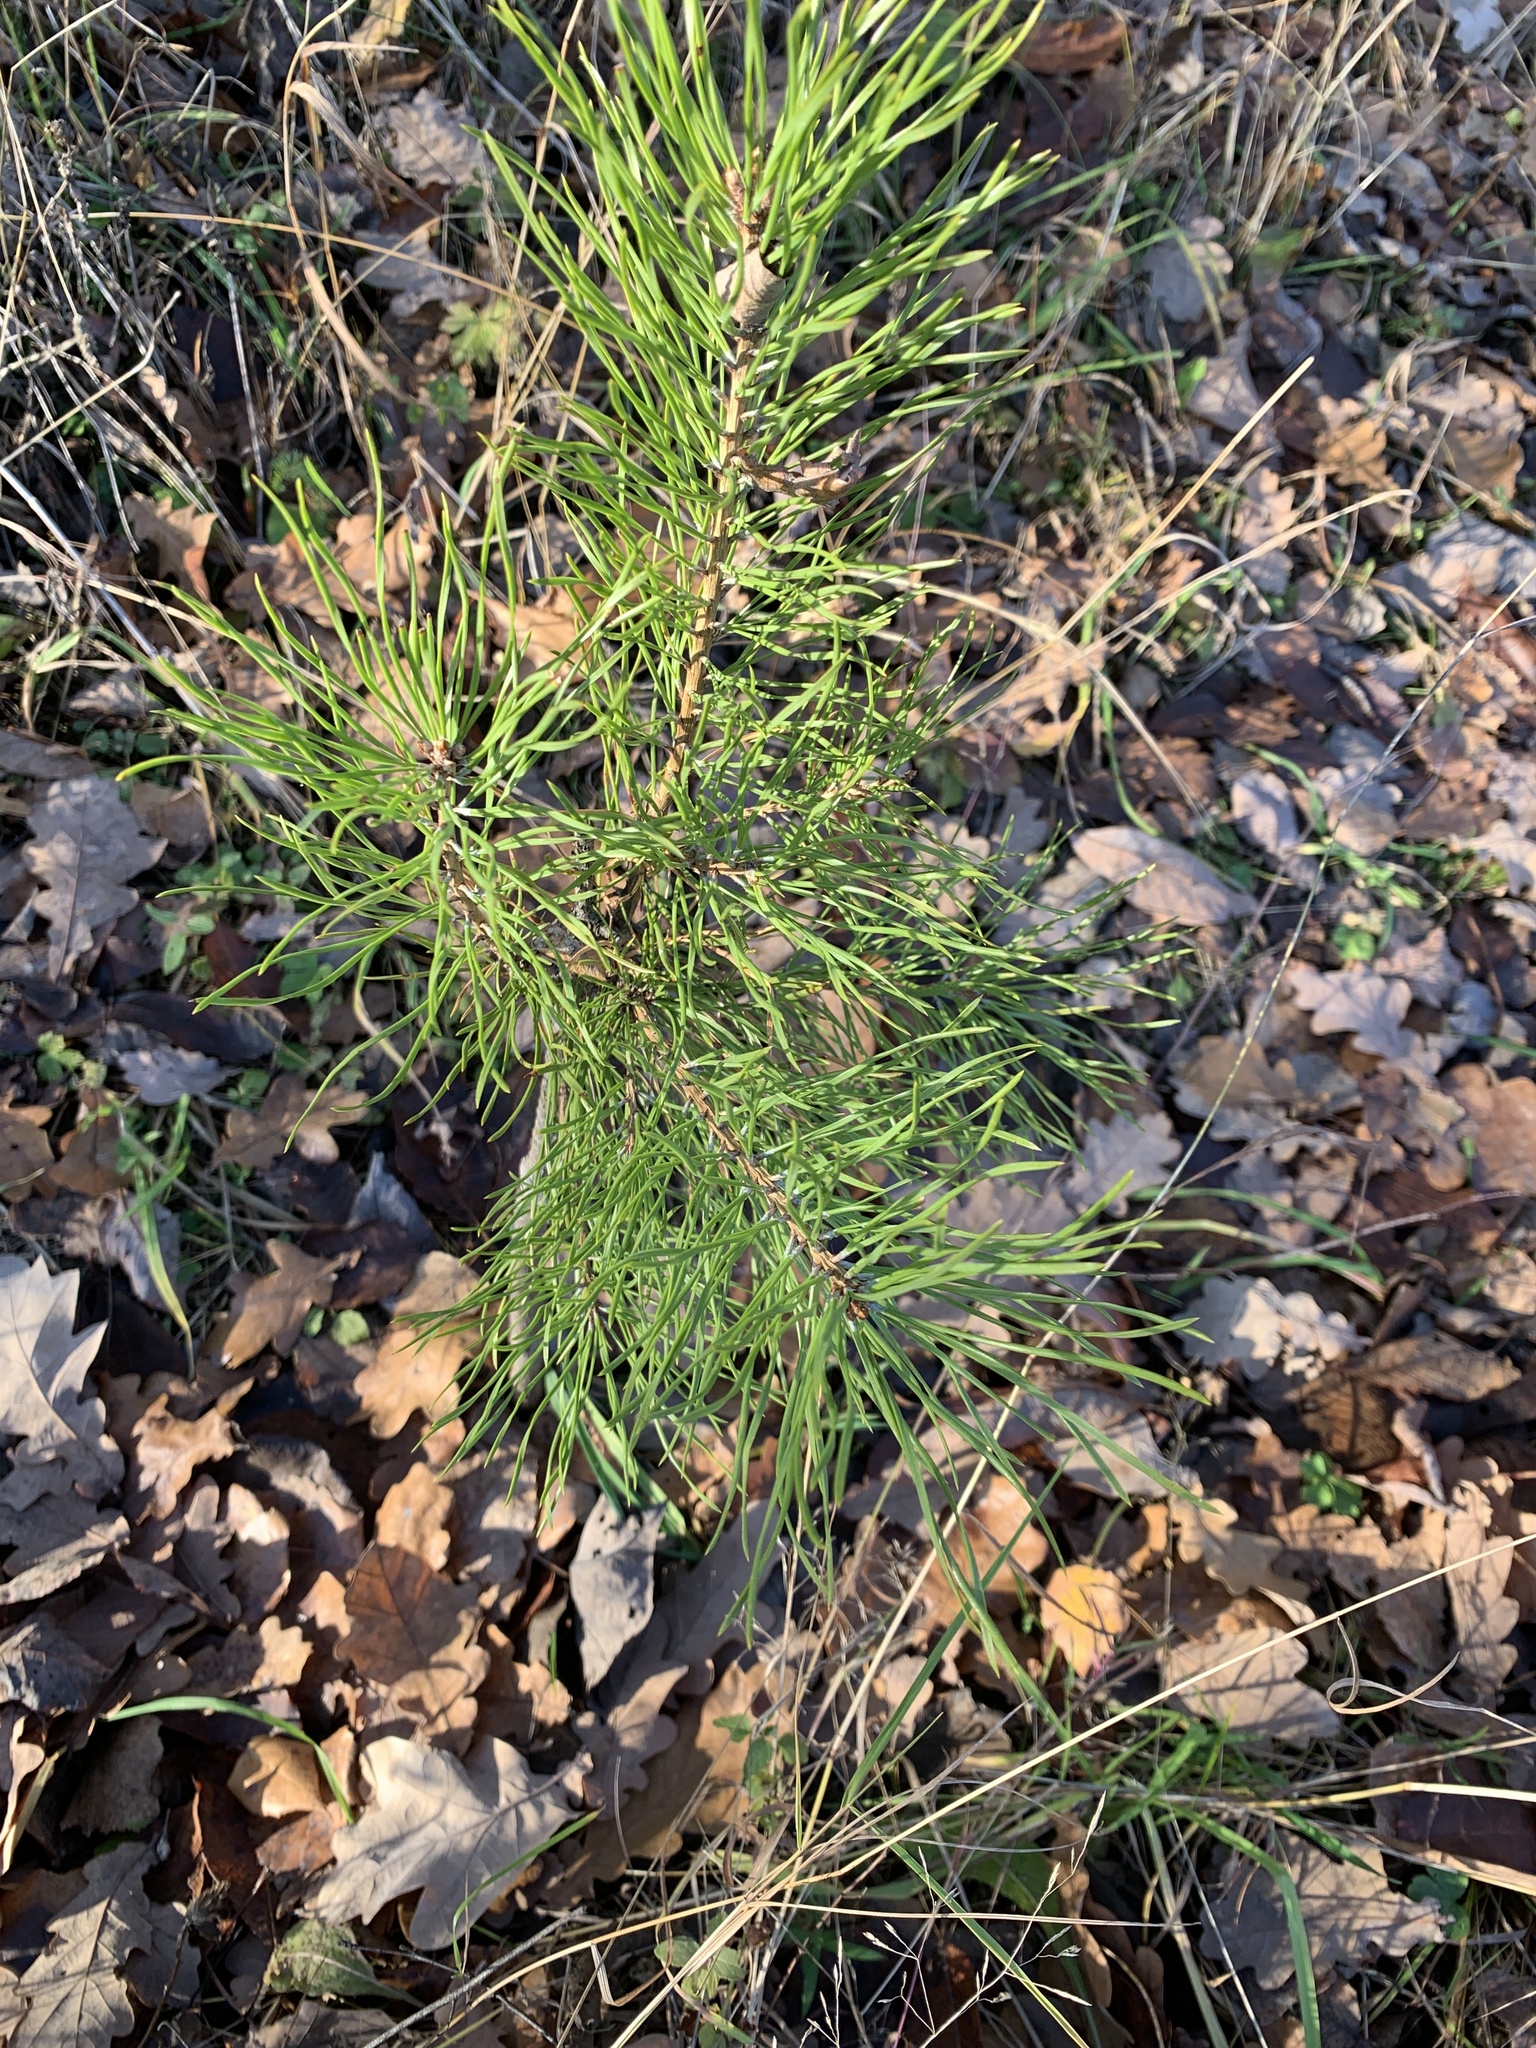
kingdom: Plantae
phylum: Tracheophyta
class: Pinopsida
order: Pinales
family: Pinaceae
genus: Pinus
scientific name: Pinus sylvestris
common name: Scots pine
